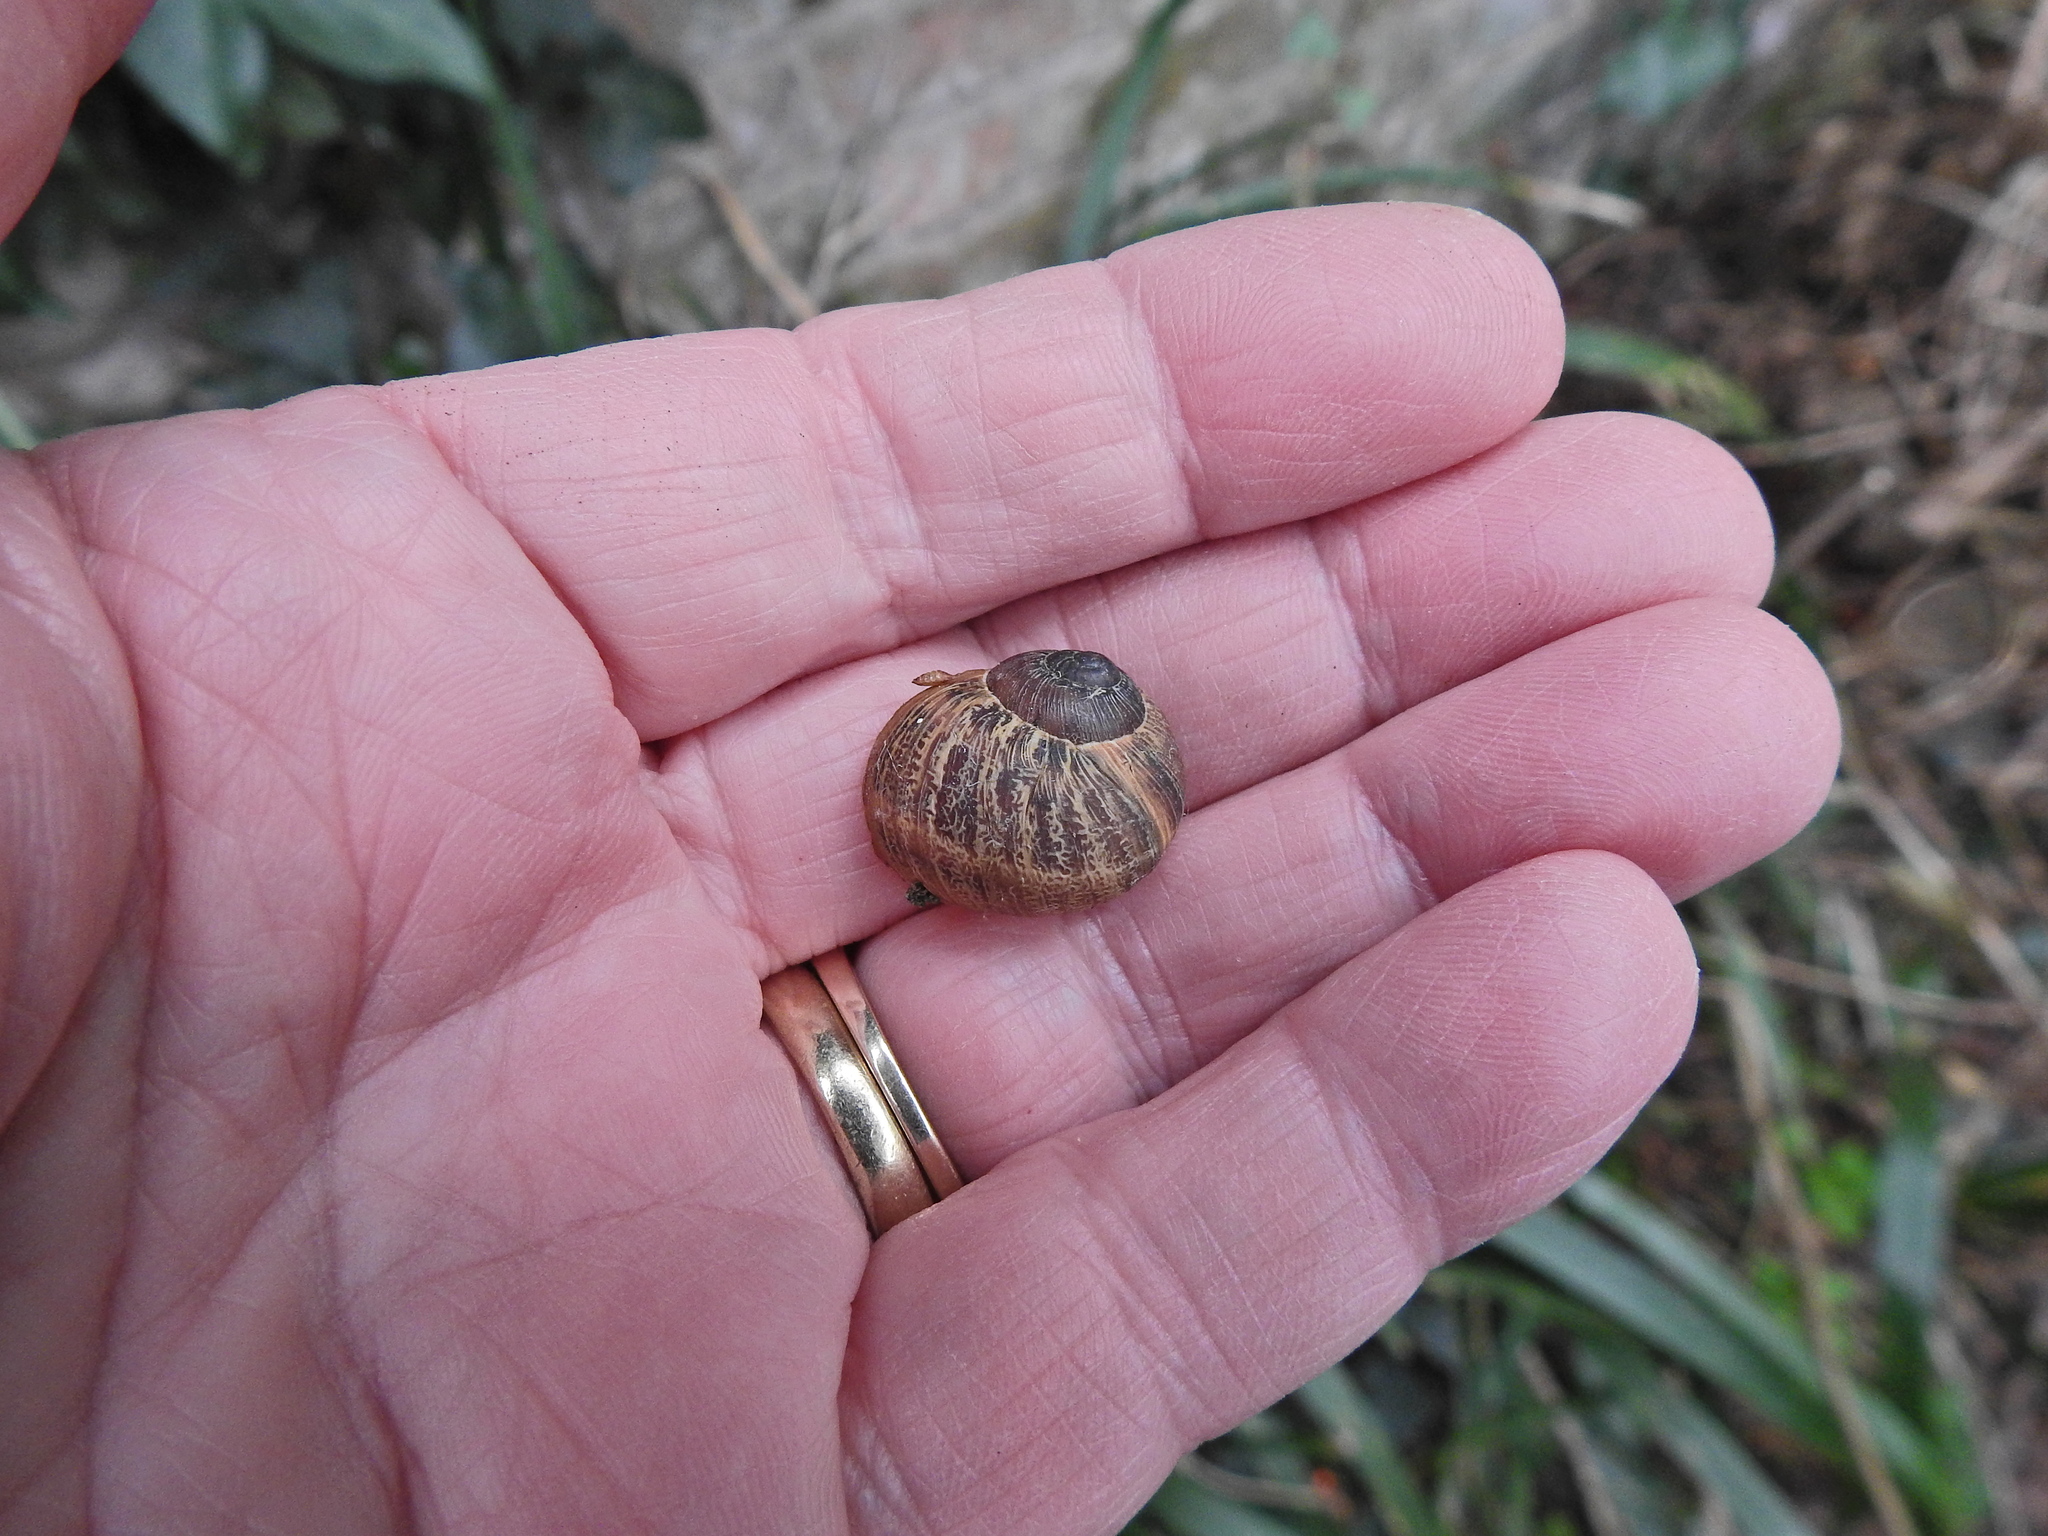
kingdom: Animalia
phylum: Mollusca
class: Gastropoda
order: Stylommatophora
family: Helicidae
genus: Cornu
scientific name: Cornu aspersum
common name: Brown garden snail
